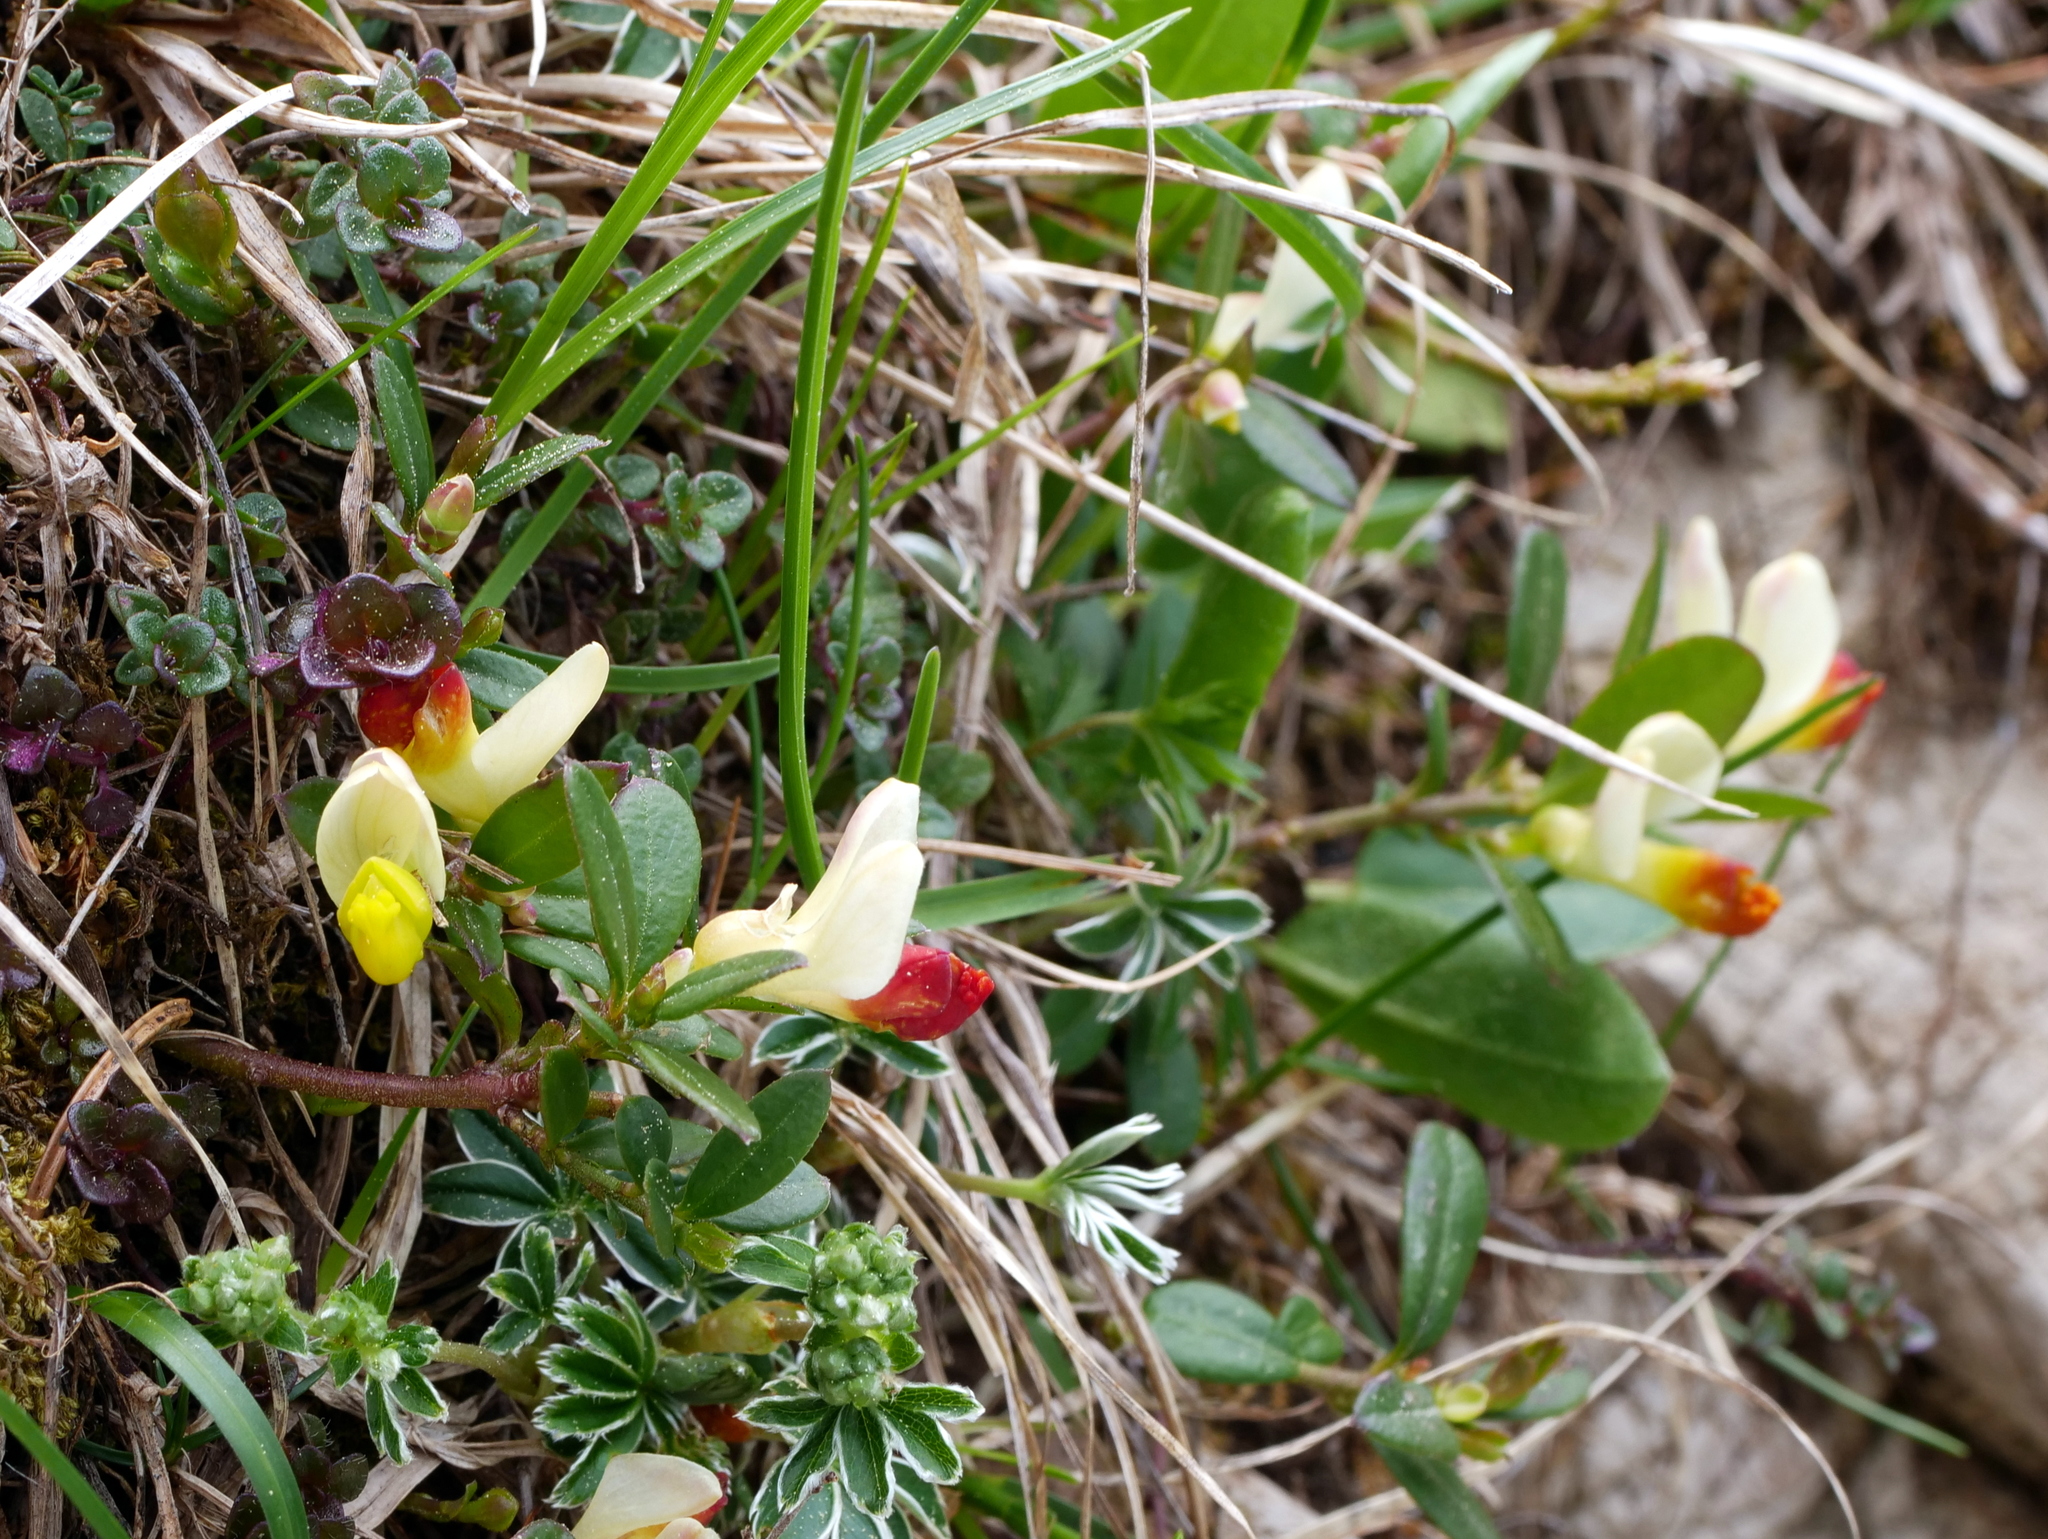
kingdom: Plantae
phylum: Tracheophyta
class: Magnoliopsida
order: Fabales
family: Polygalaceae
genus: Polygaloides
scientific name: Polygaloides chamaebuxus
